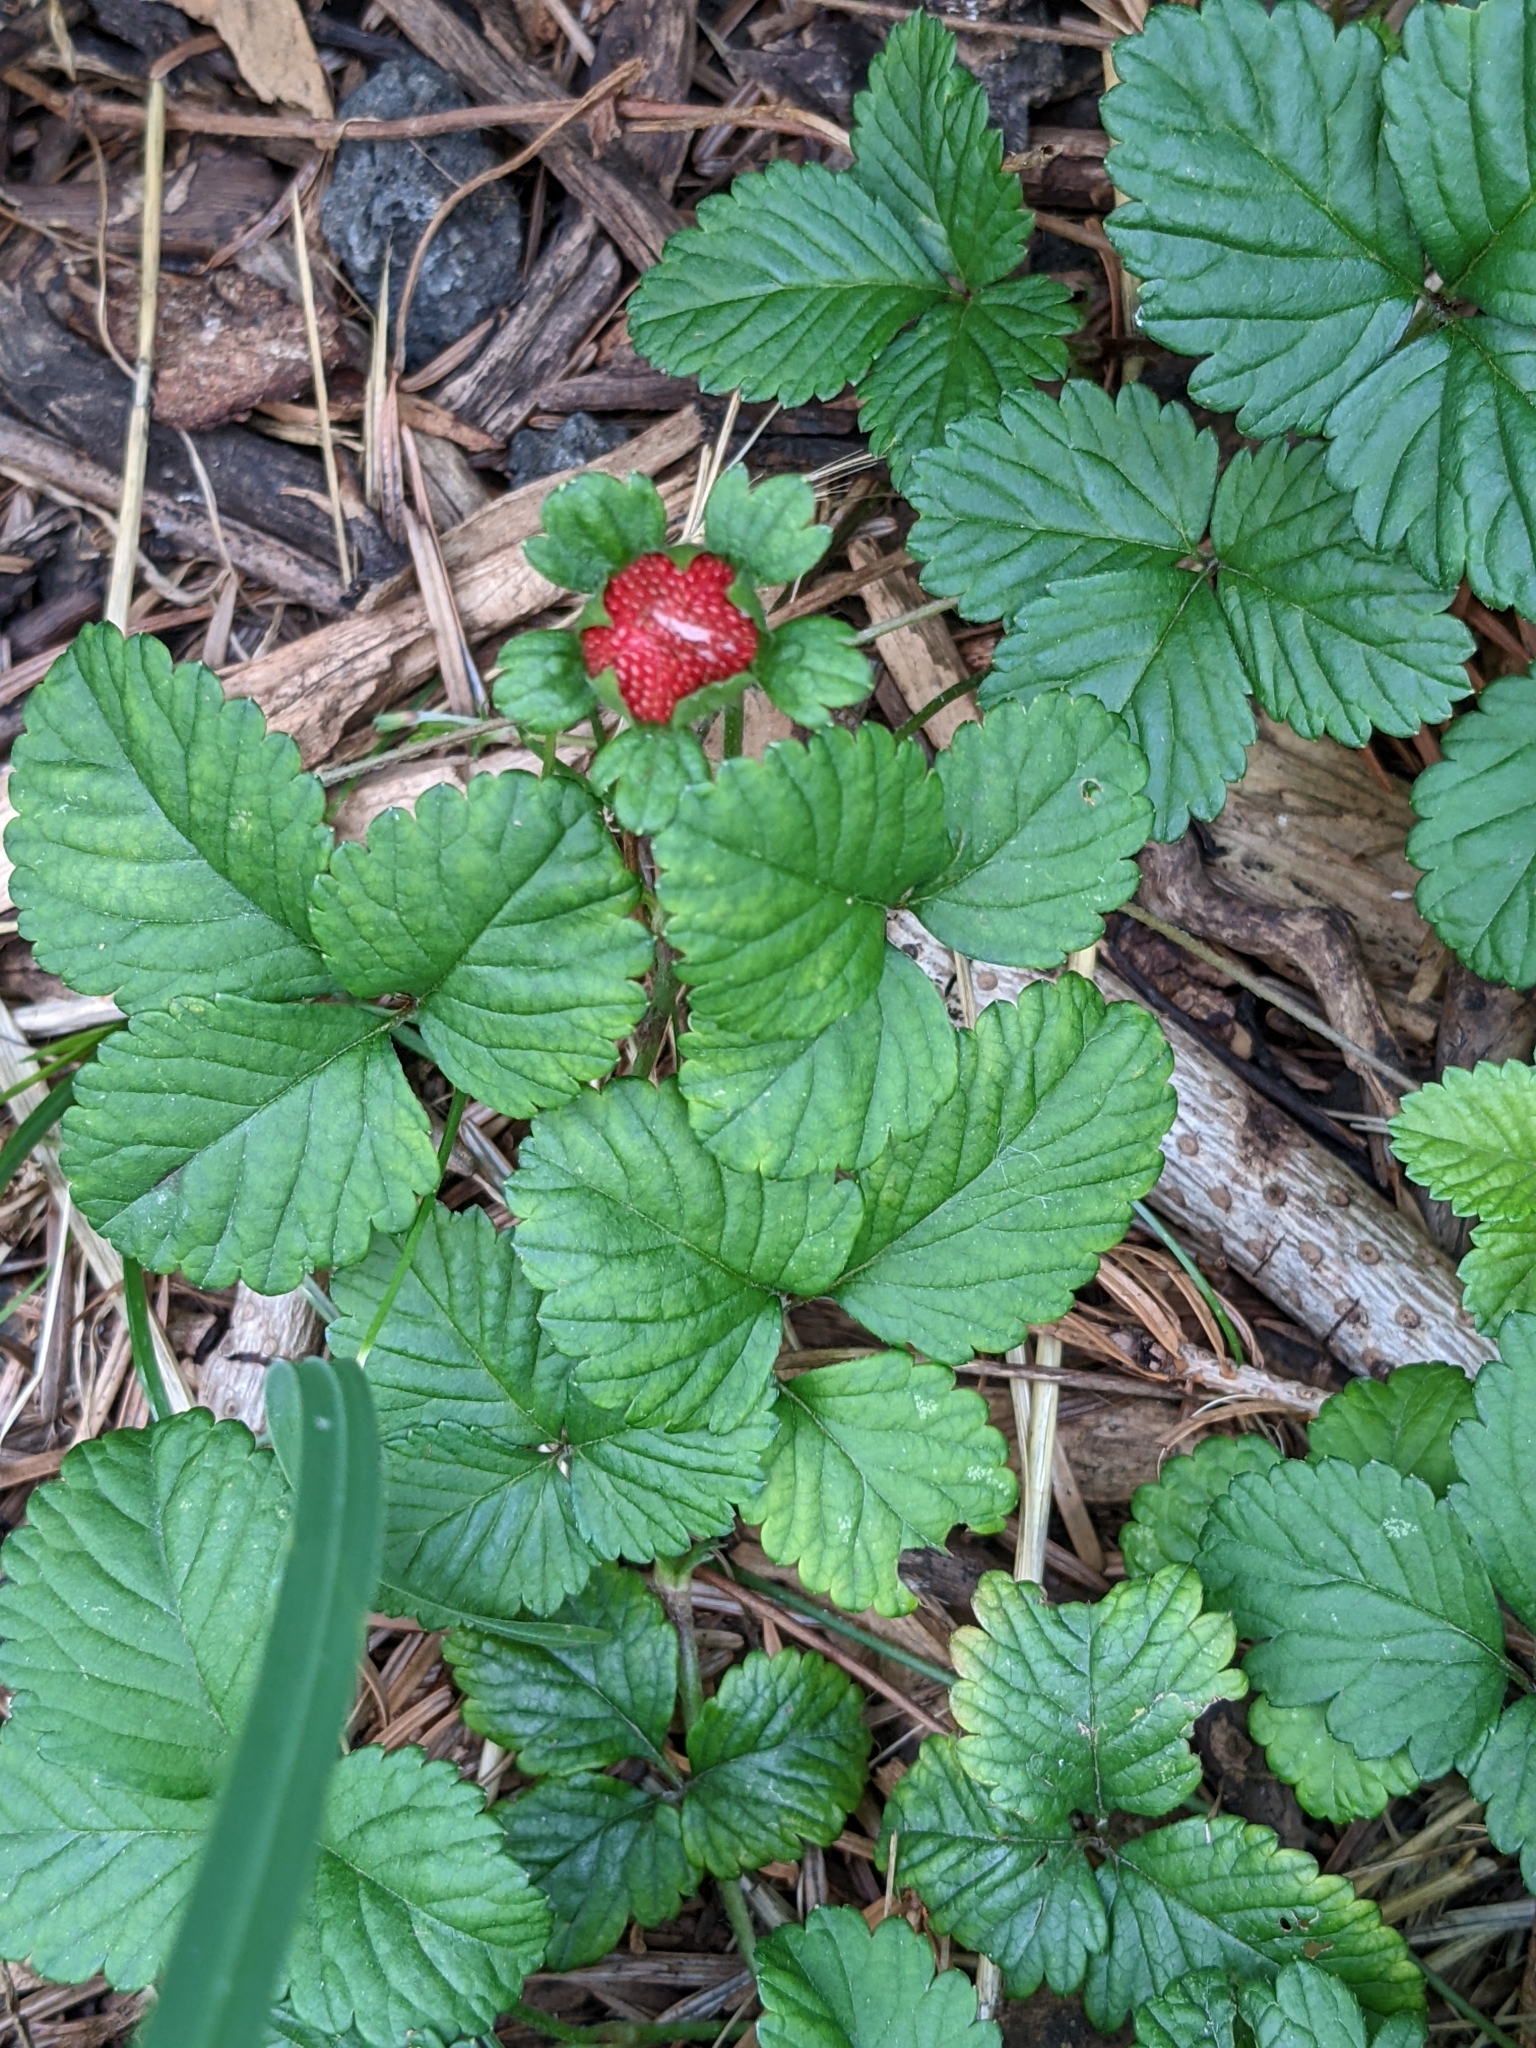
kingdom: Plantae
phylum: Tracheophyta
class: Magnoliopsida
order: Rosales
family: Rosaceae
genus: Potentilla
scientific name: Potentilla indica
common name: Yellow-flowered strawberry
